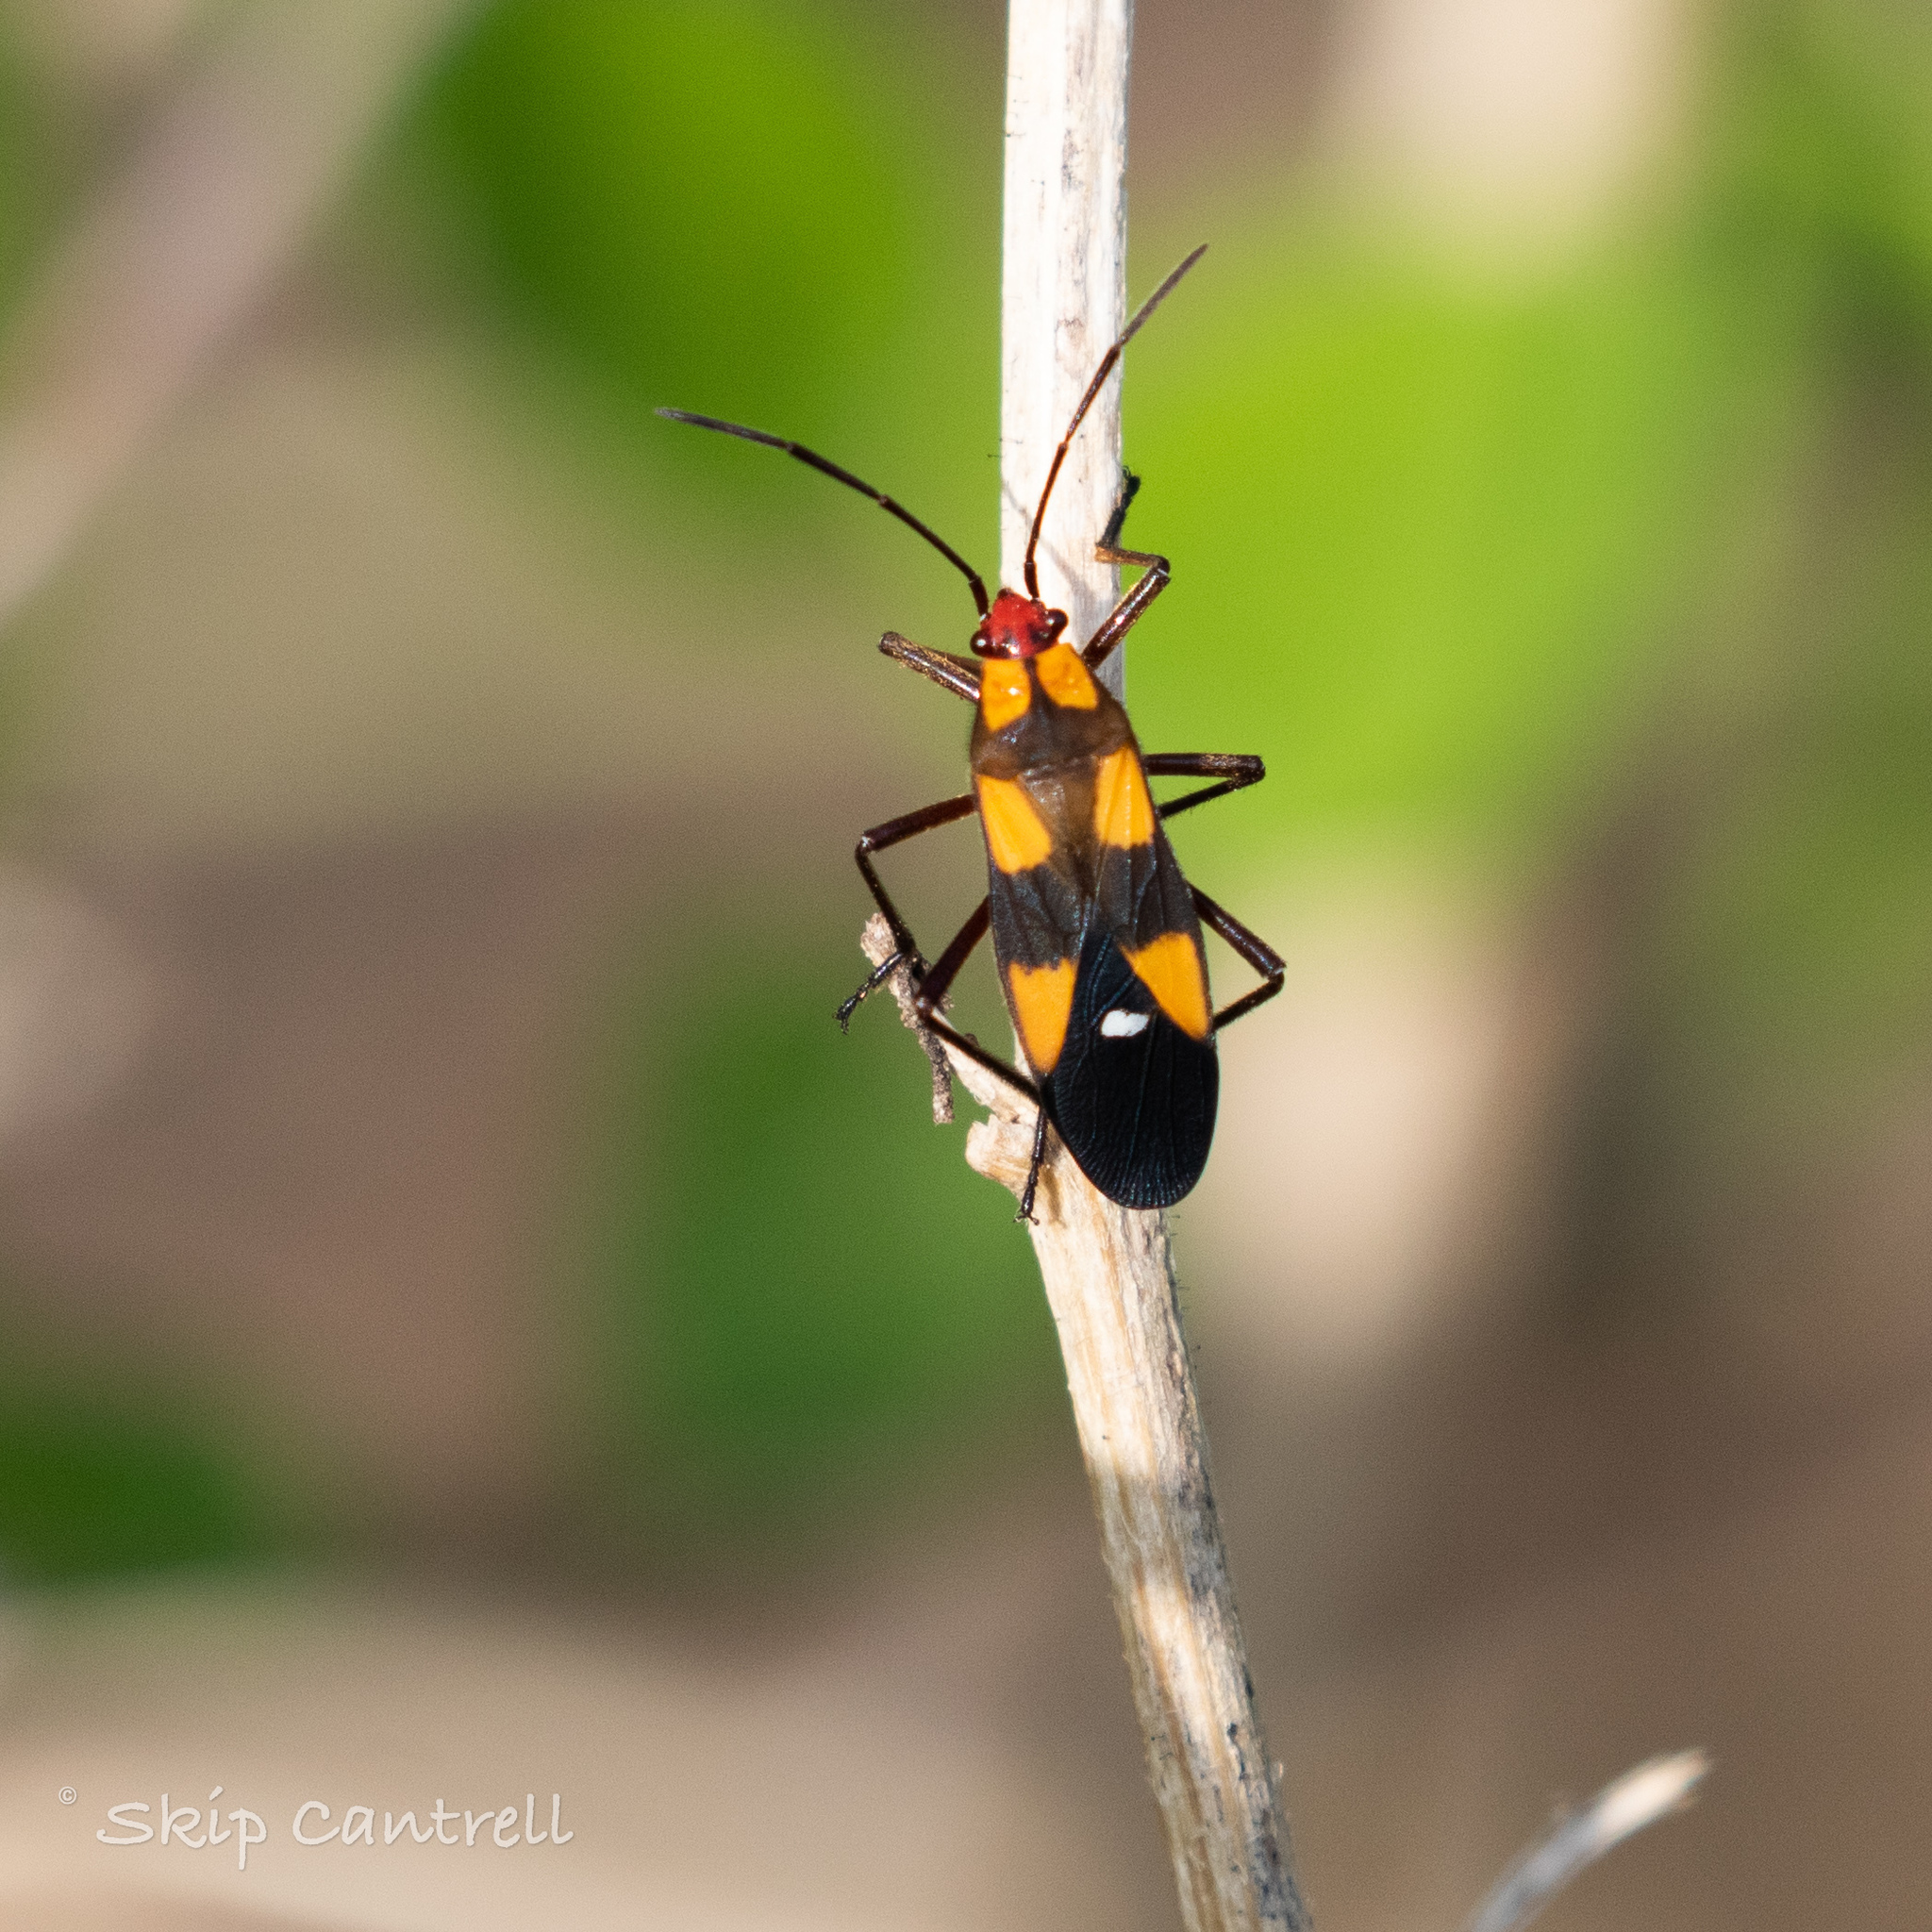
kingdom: Animalia
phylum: Arthropoda
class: Insecta
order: Hemiptera
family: Lygaeidae
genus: Oncopeltus
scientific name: Oncopeltus sexmaculatus
